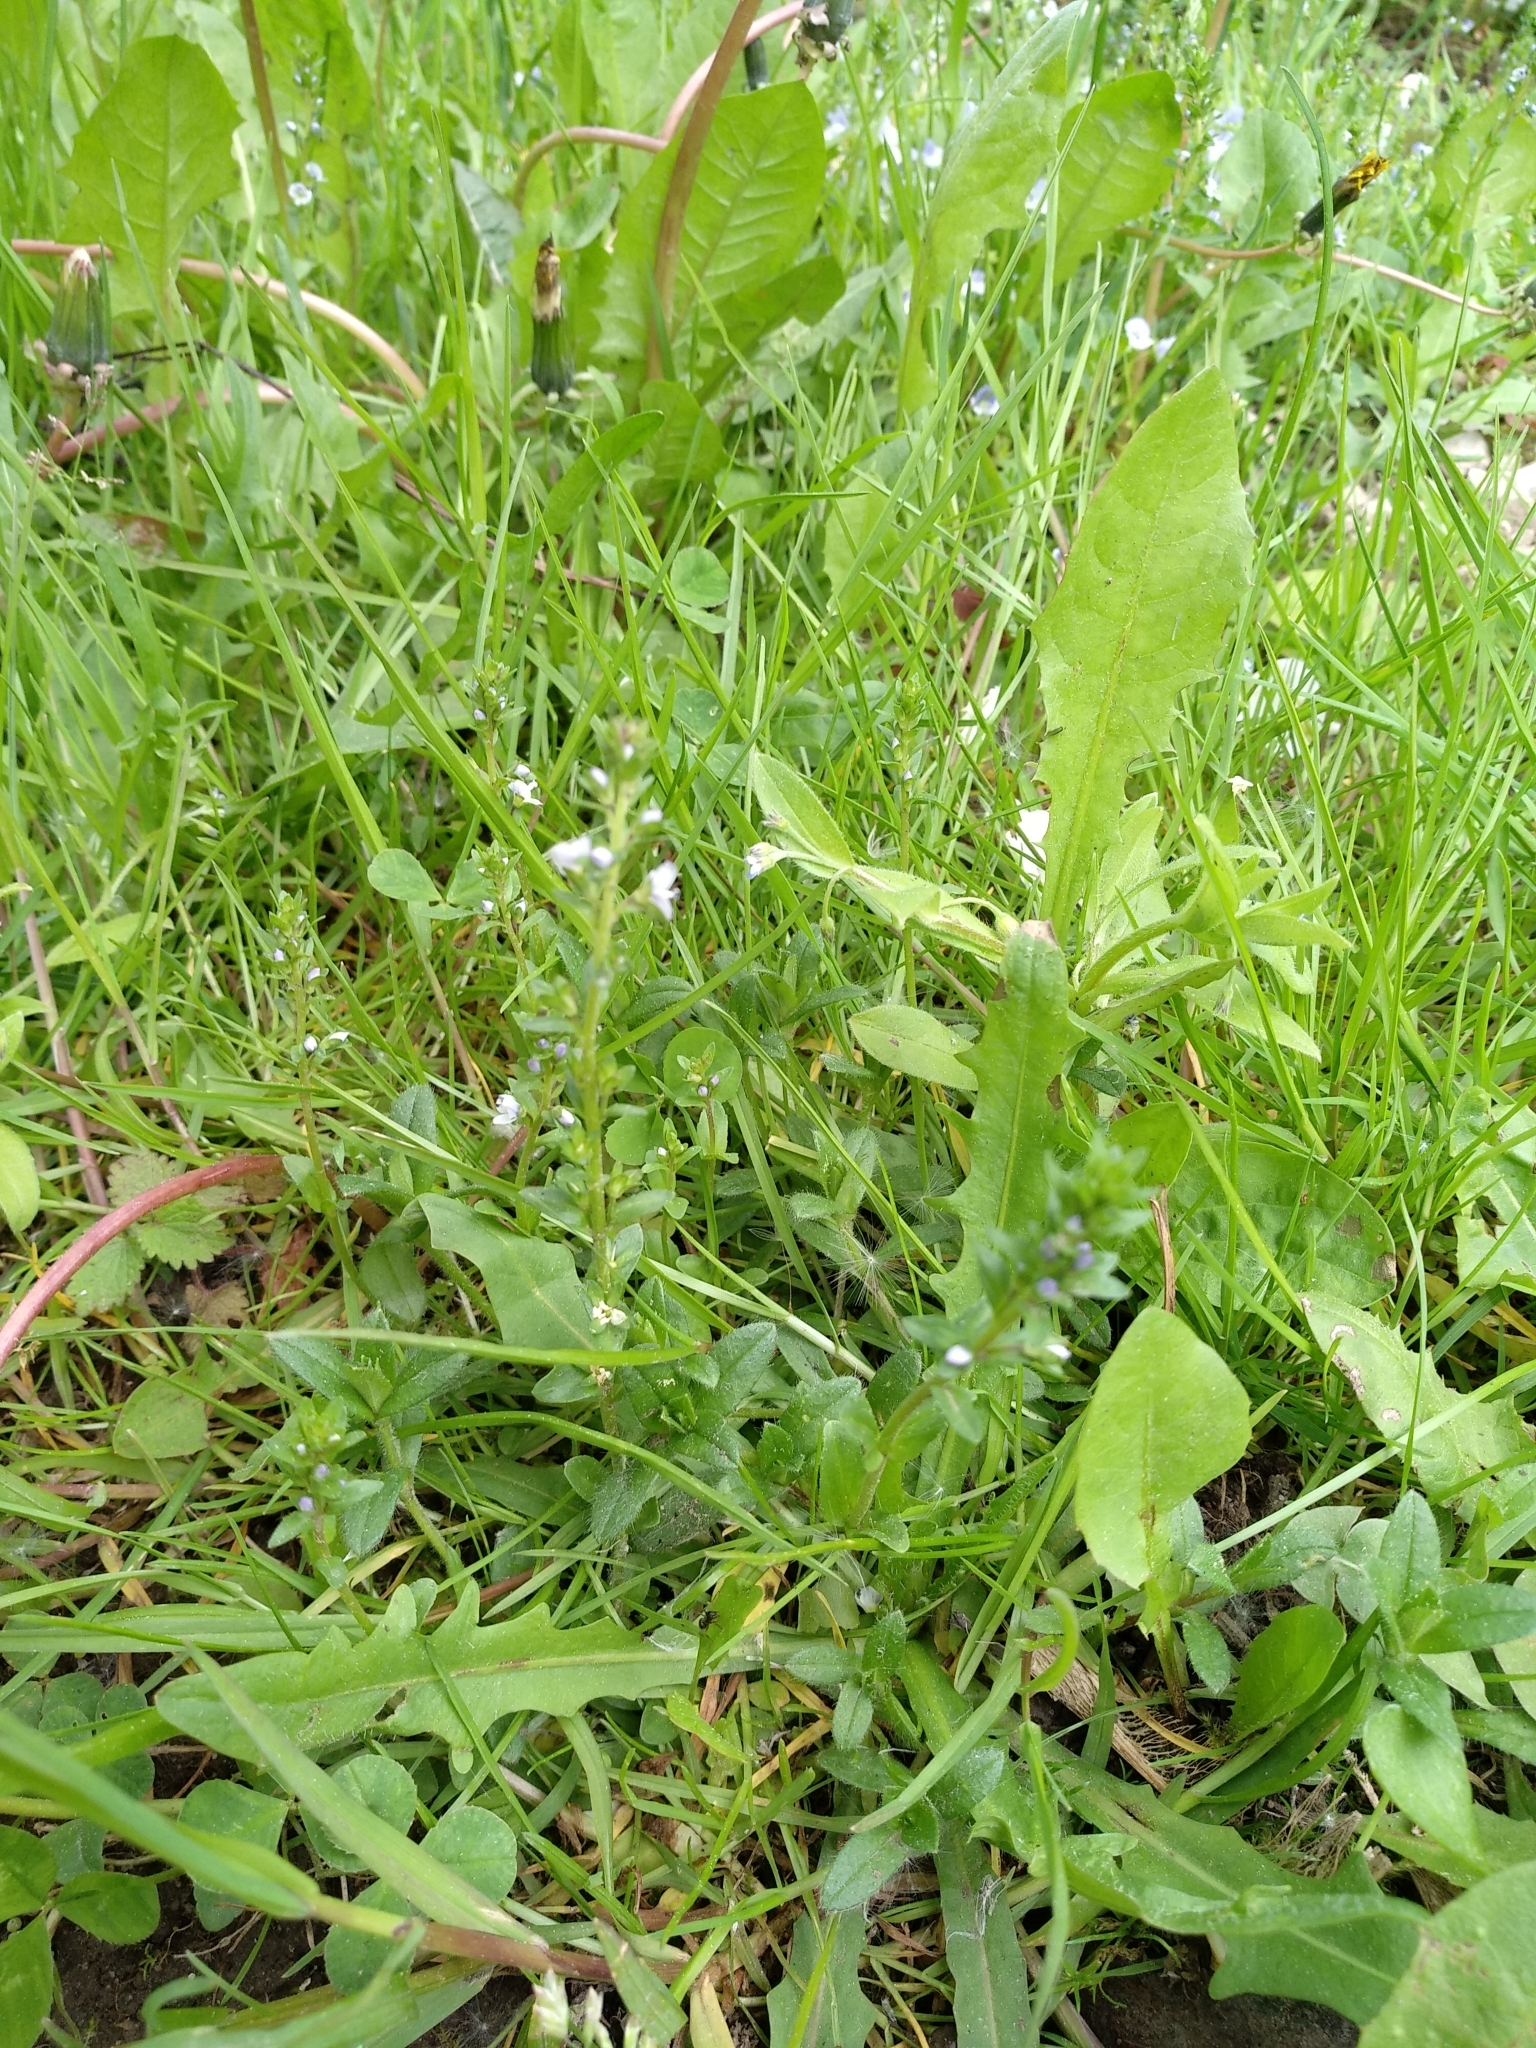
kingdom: Plantae
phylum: Tracheophyta
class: Magnoliopsida
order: Lamiales
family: Plantaginaceae
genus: Veronica
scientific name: Veronica serpyllifolia
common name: Thyme-leaved speedwell
